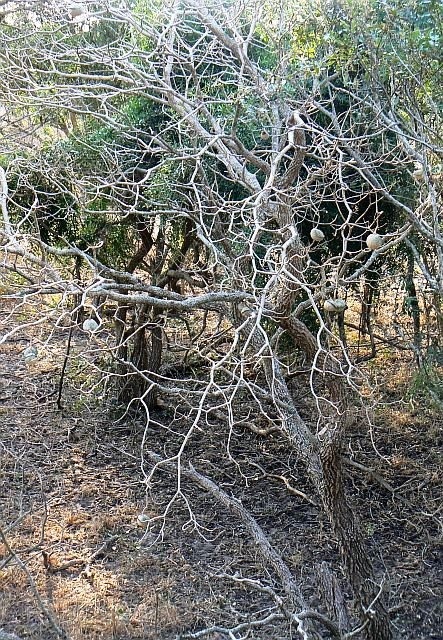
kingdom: Plantae
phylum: Tracheophyta
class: Magnoliopsida
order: Gentianales
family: Apocynaceae
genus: Tabernaemontana
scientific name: Tabernaemontana elegans
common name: Toadtree
